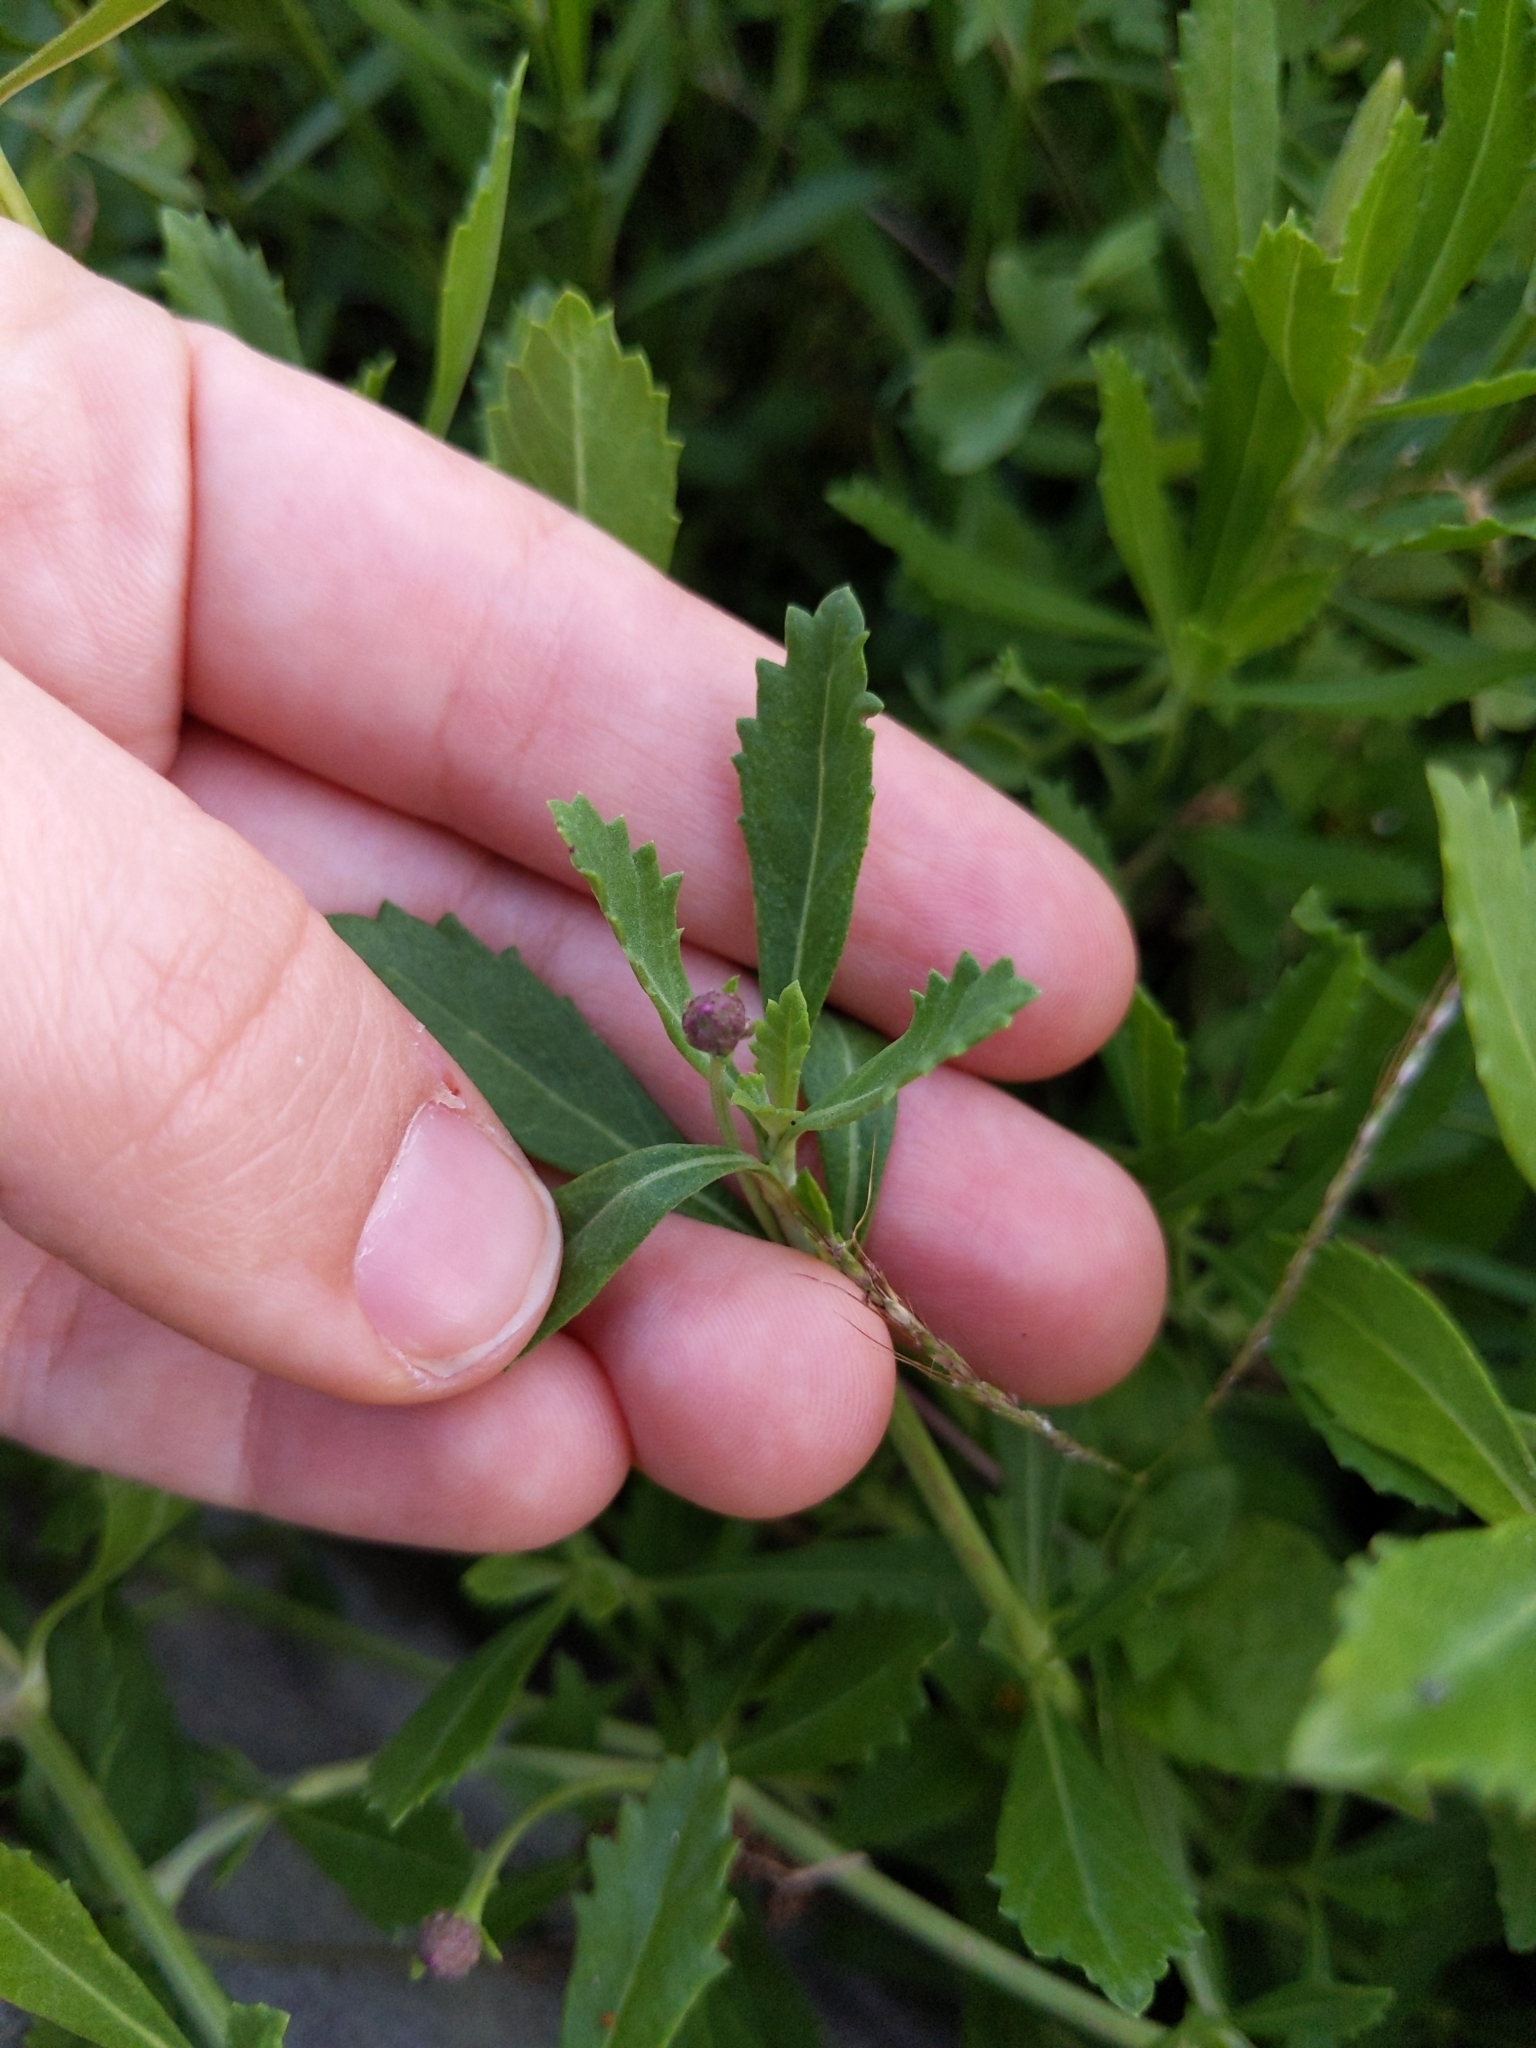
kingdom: Plantae
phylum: Tracheophyta
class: Magnoliopsida
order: Lamiales
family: Verbenaceae
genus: Phyla
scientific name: Phyla nodiflora
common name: Frogfruit
